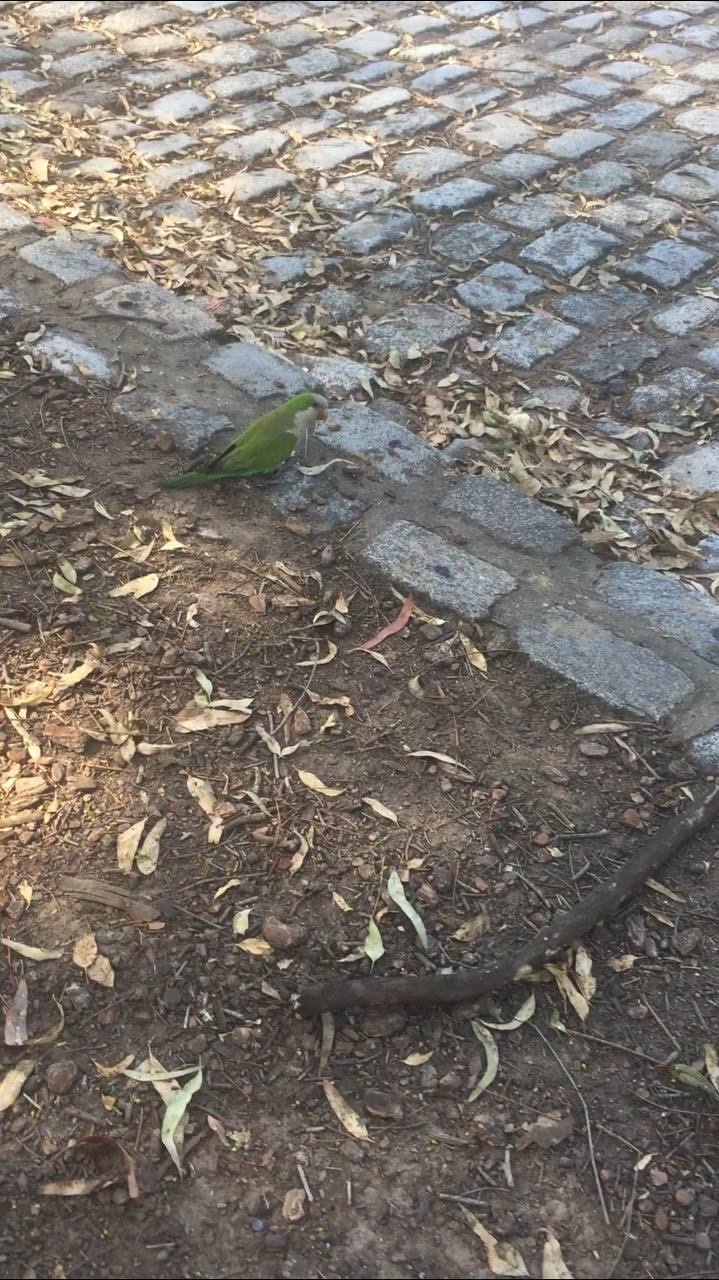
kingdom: Animalia
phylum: Chordata
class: Aves
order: Psittaciformes
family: Psittacidae
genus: Myiopsitta
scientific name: Myiopsitta monachus
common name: Monk parakeet
